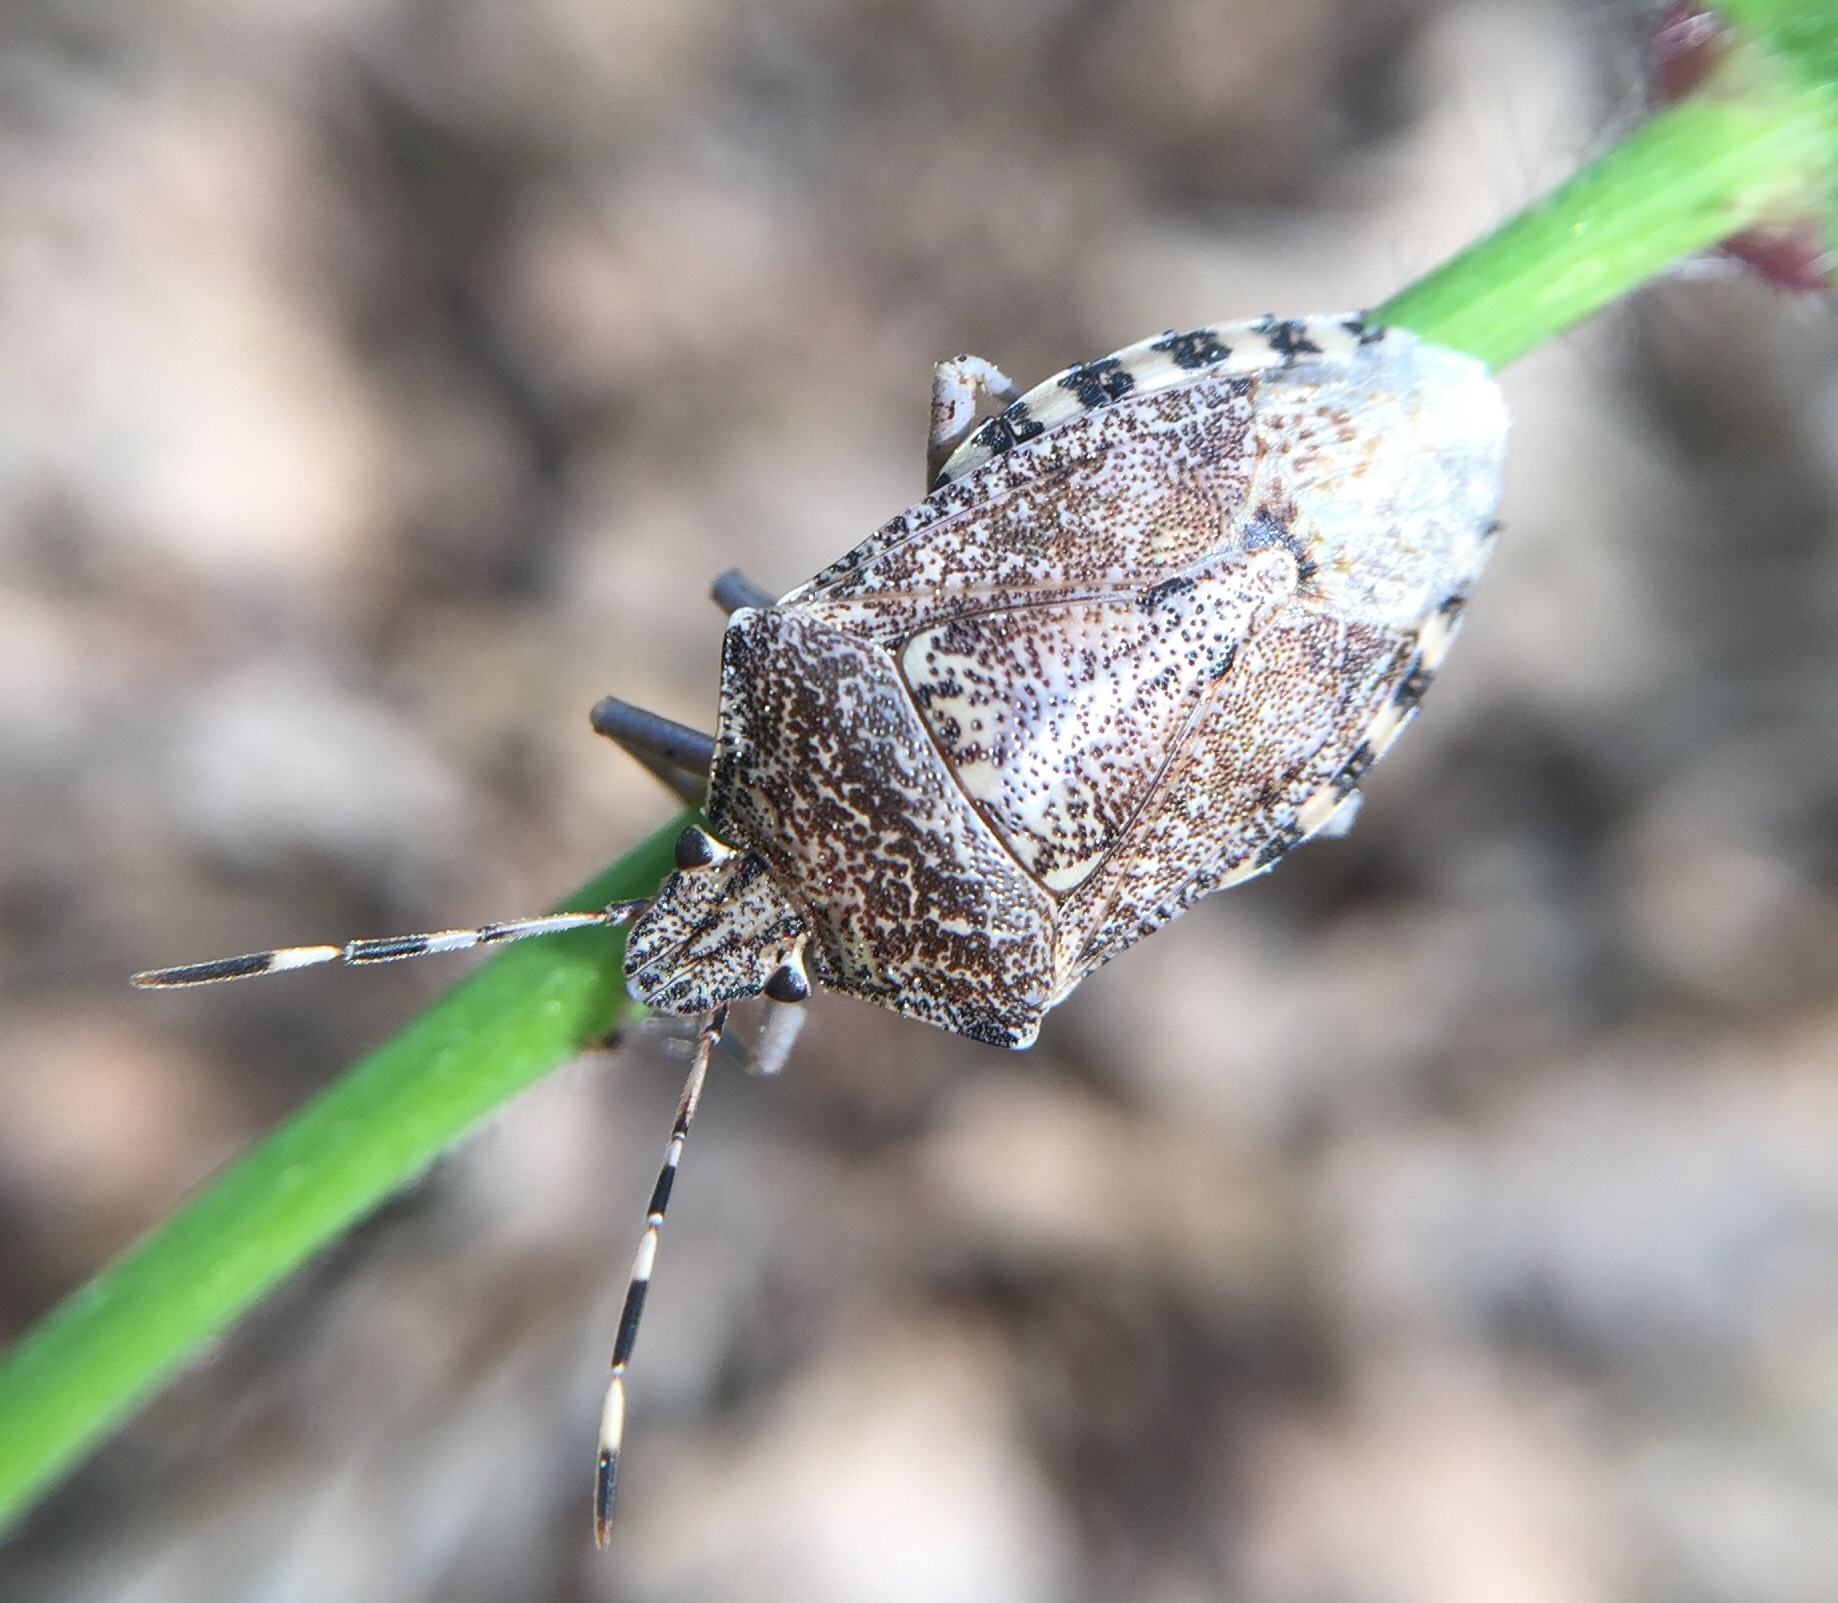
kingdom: Animalia
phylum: Arthropoda
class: Insecta
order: Hemiptera
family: Pentatomidae
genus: Rhaphigaster
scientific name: Rhaphigaster nebulosa
